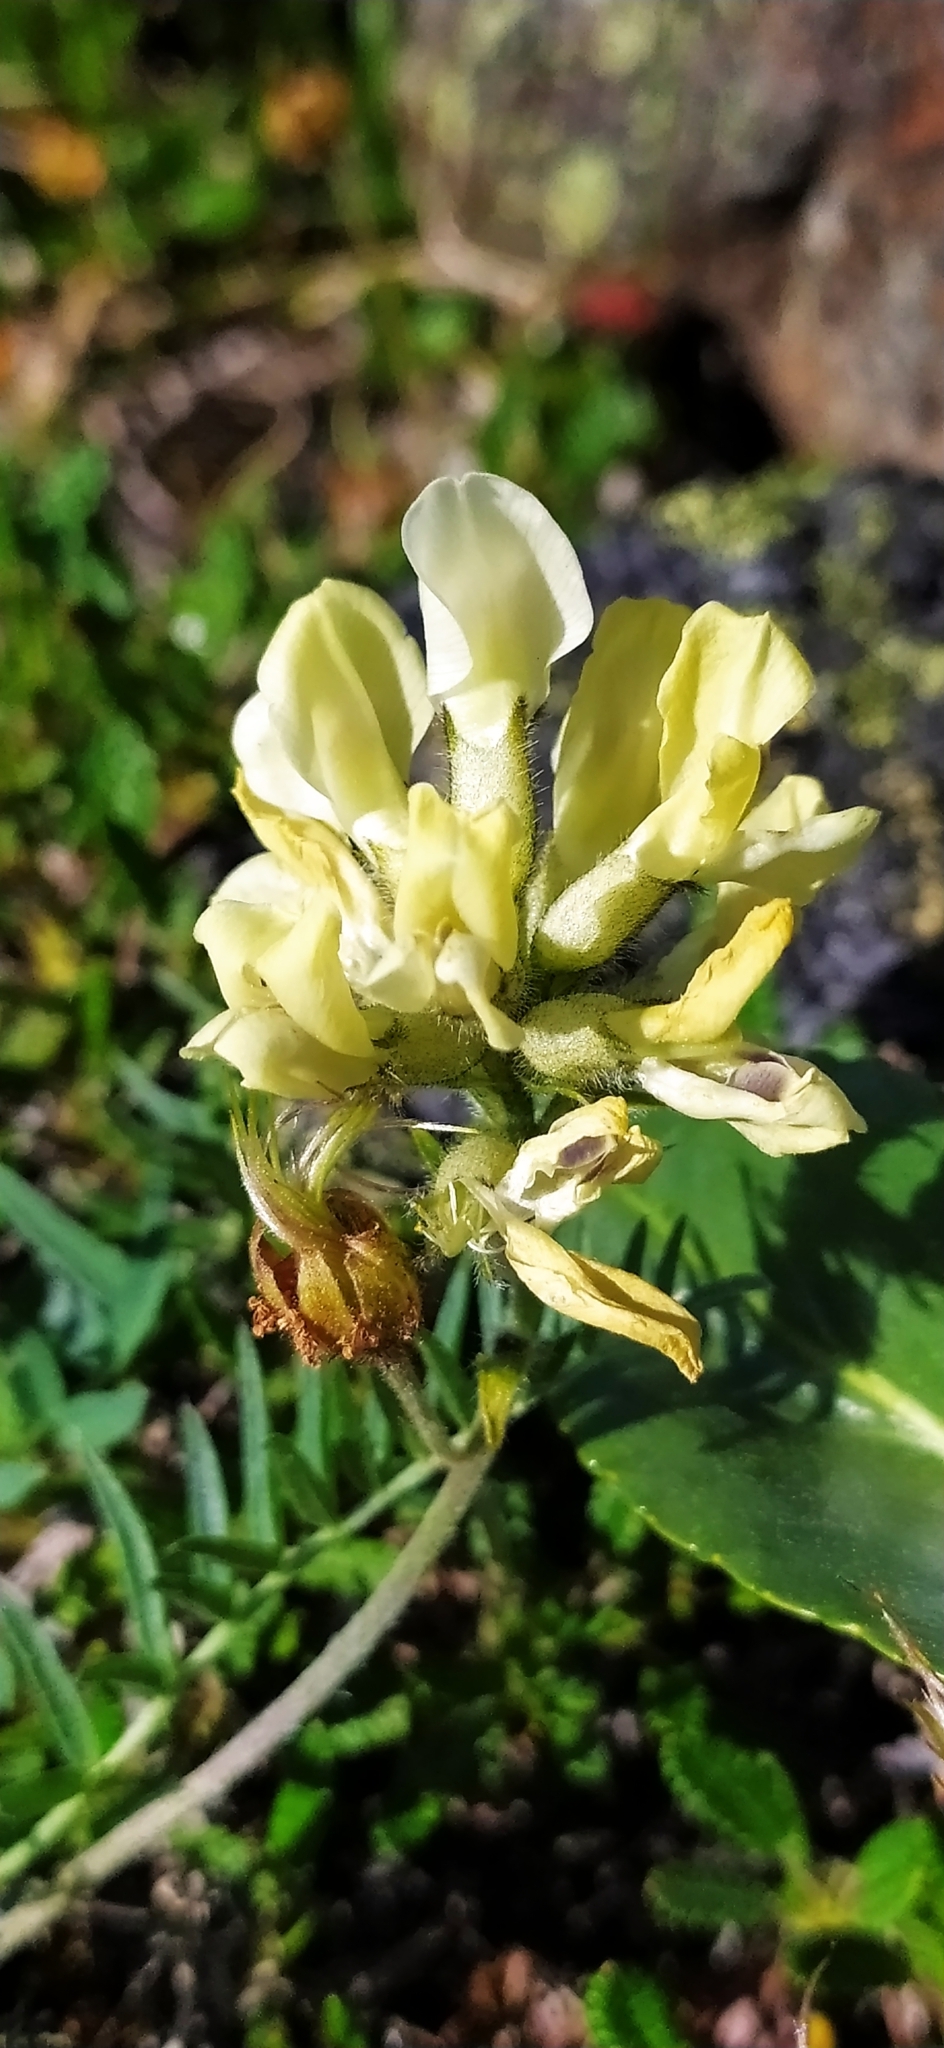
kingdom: Plantae
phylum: Tracheophyta
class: Magnoliopsida
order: Fabales
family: Fabaceae
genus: Oxytropis
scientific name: Oxytropis sordida
